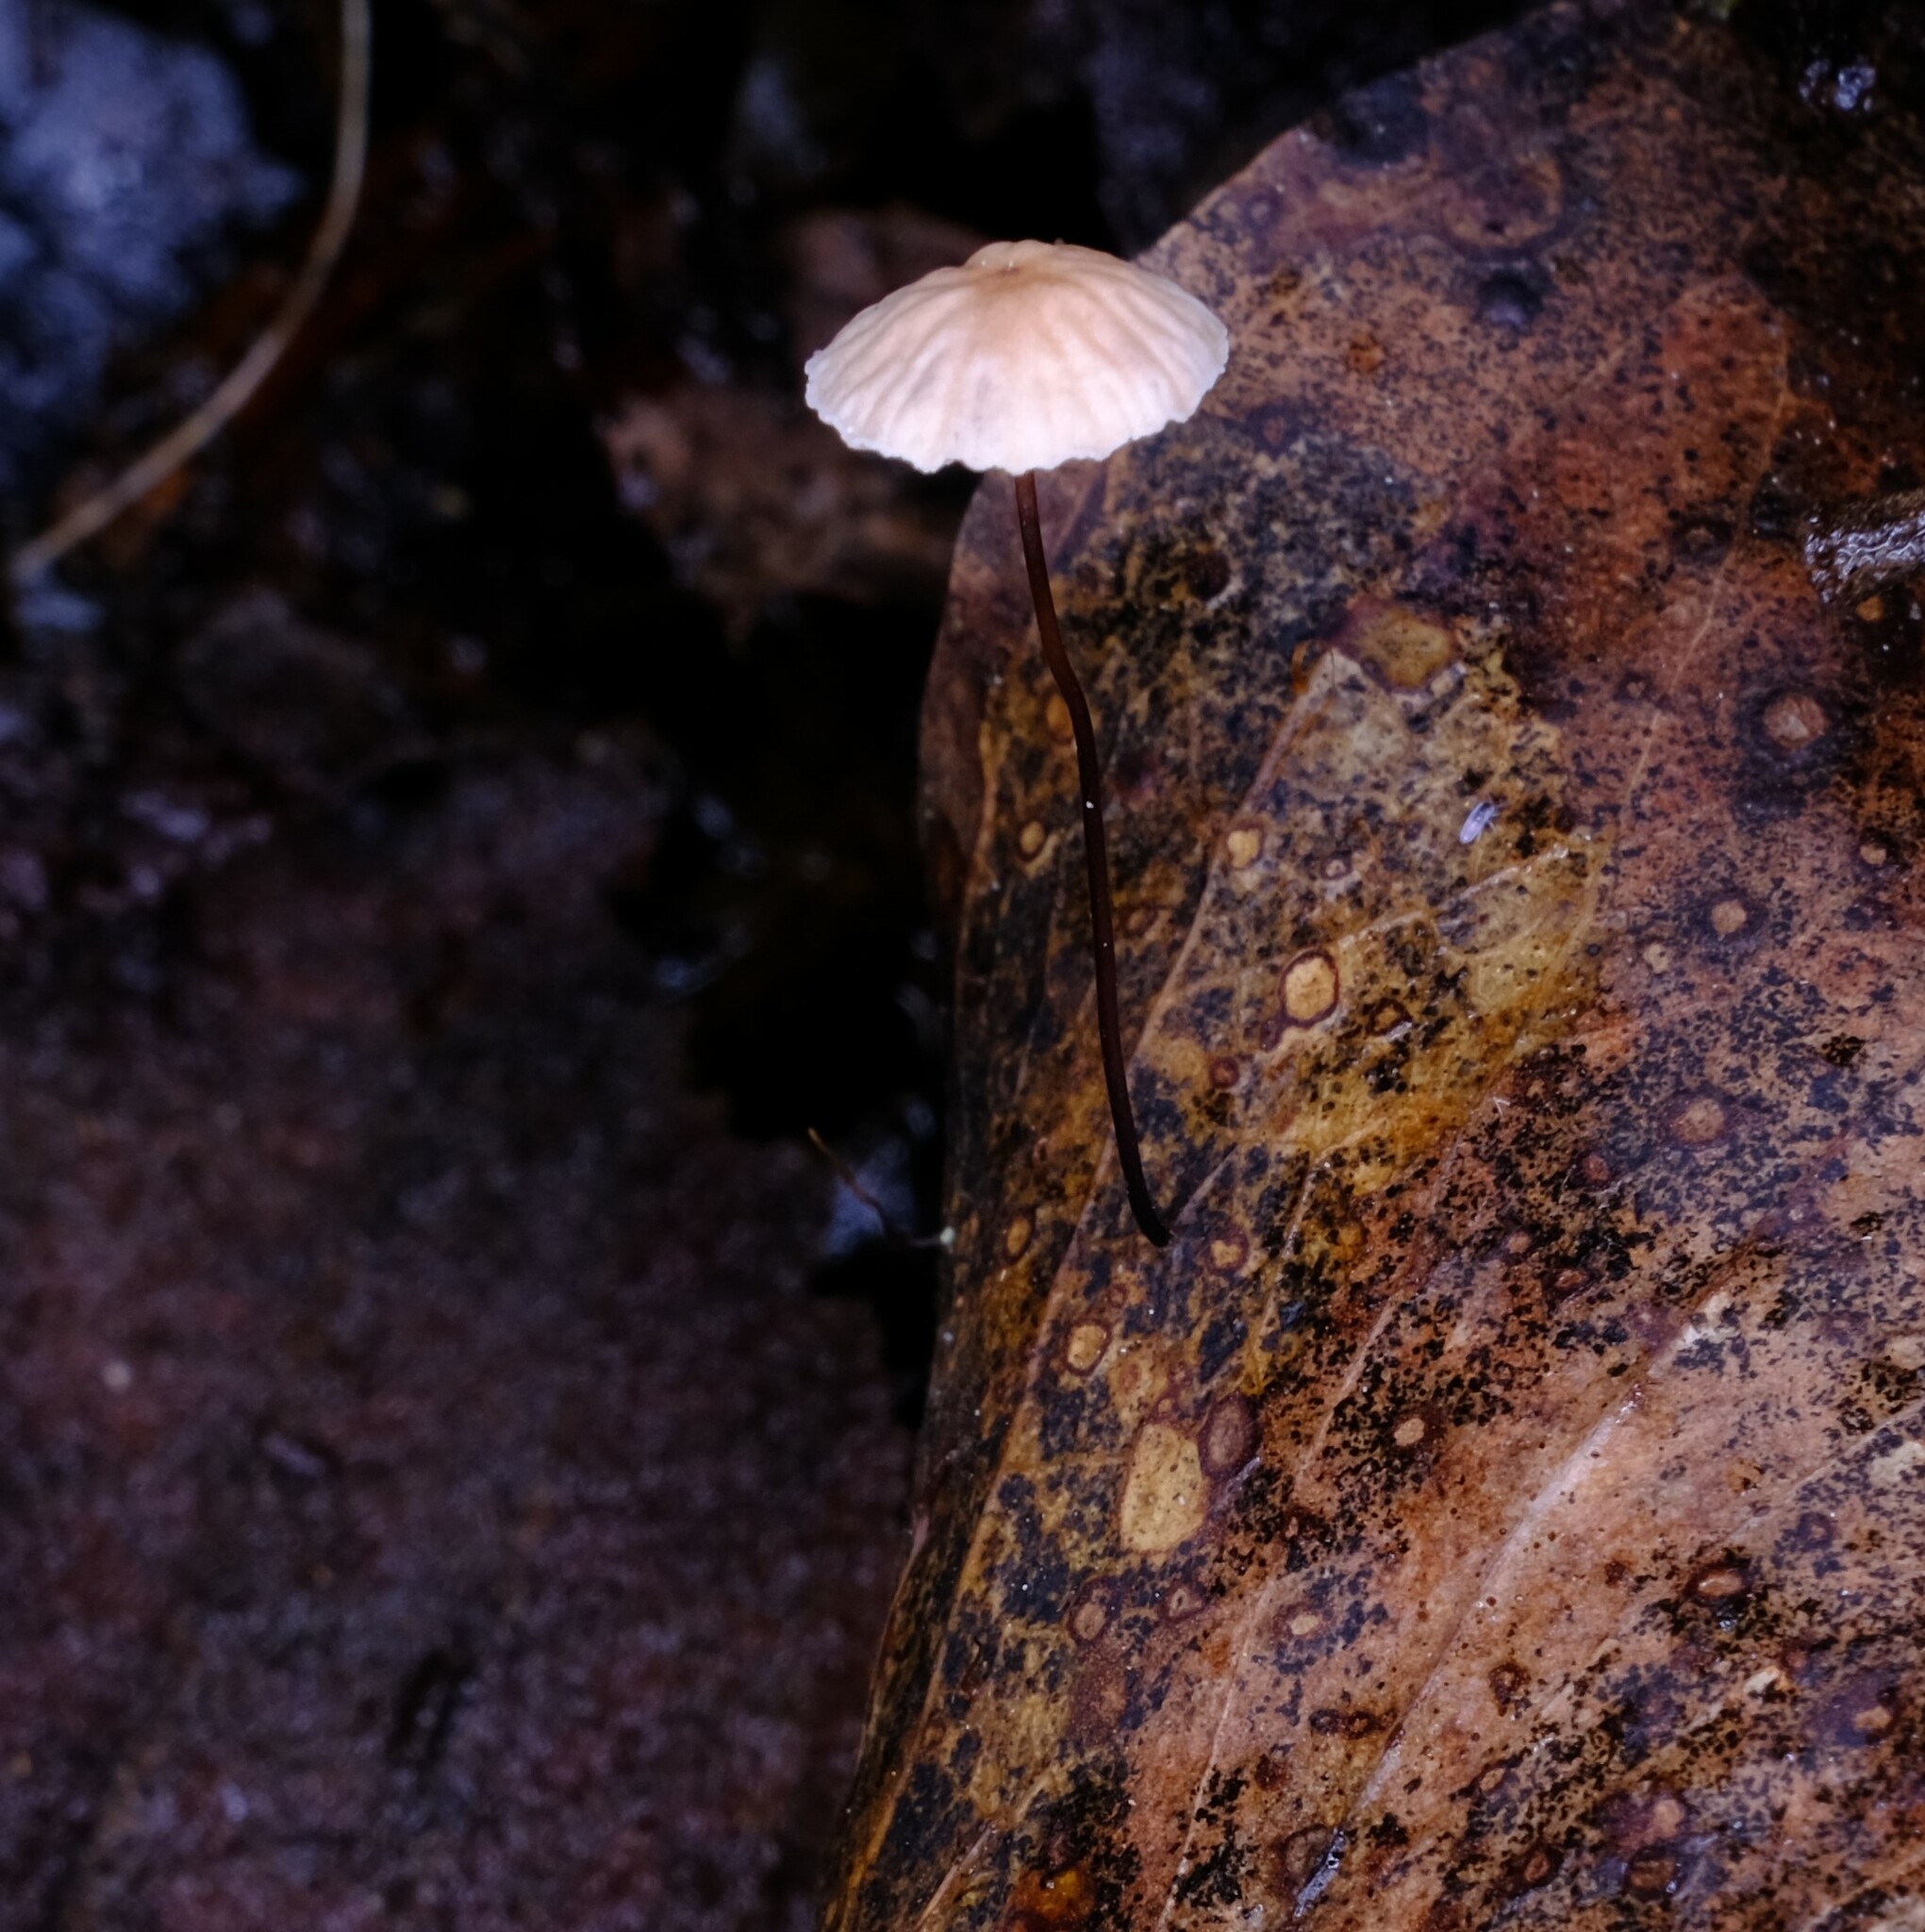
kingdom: Fungi
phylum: Basidiomycota
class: Agaricomycetes
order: Agaricales
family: Marasmiaceae
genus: Marasmius
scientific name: Marasmius crinis-equi
